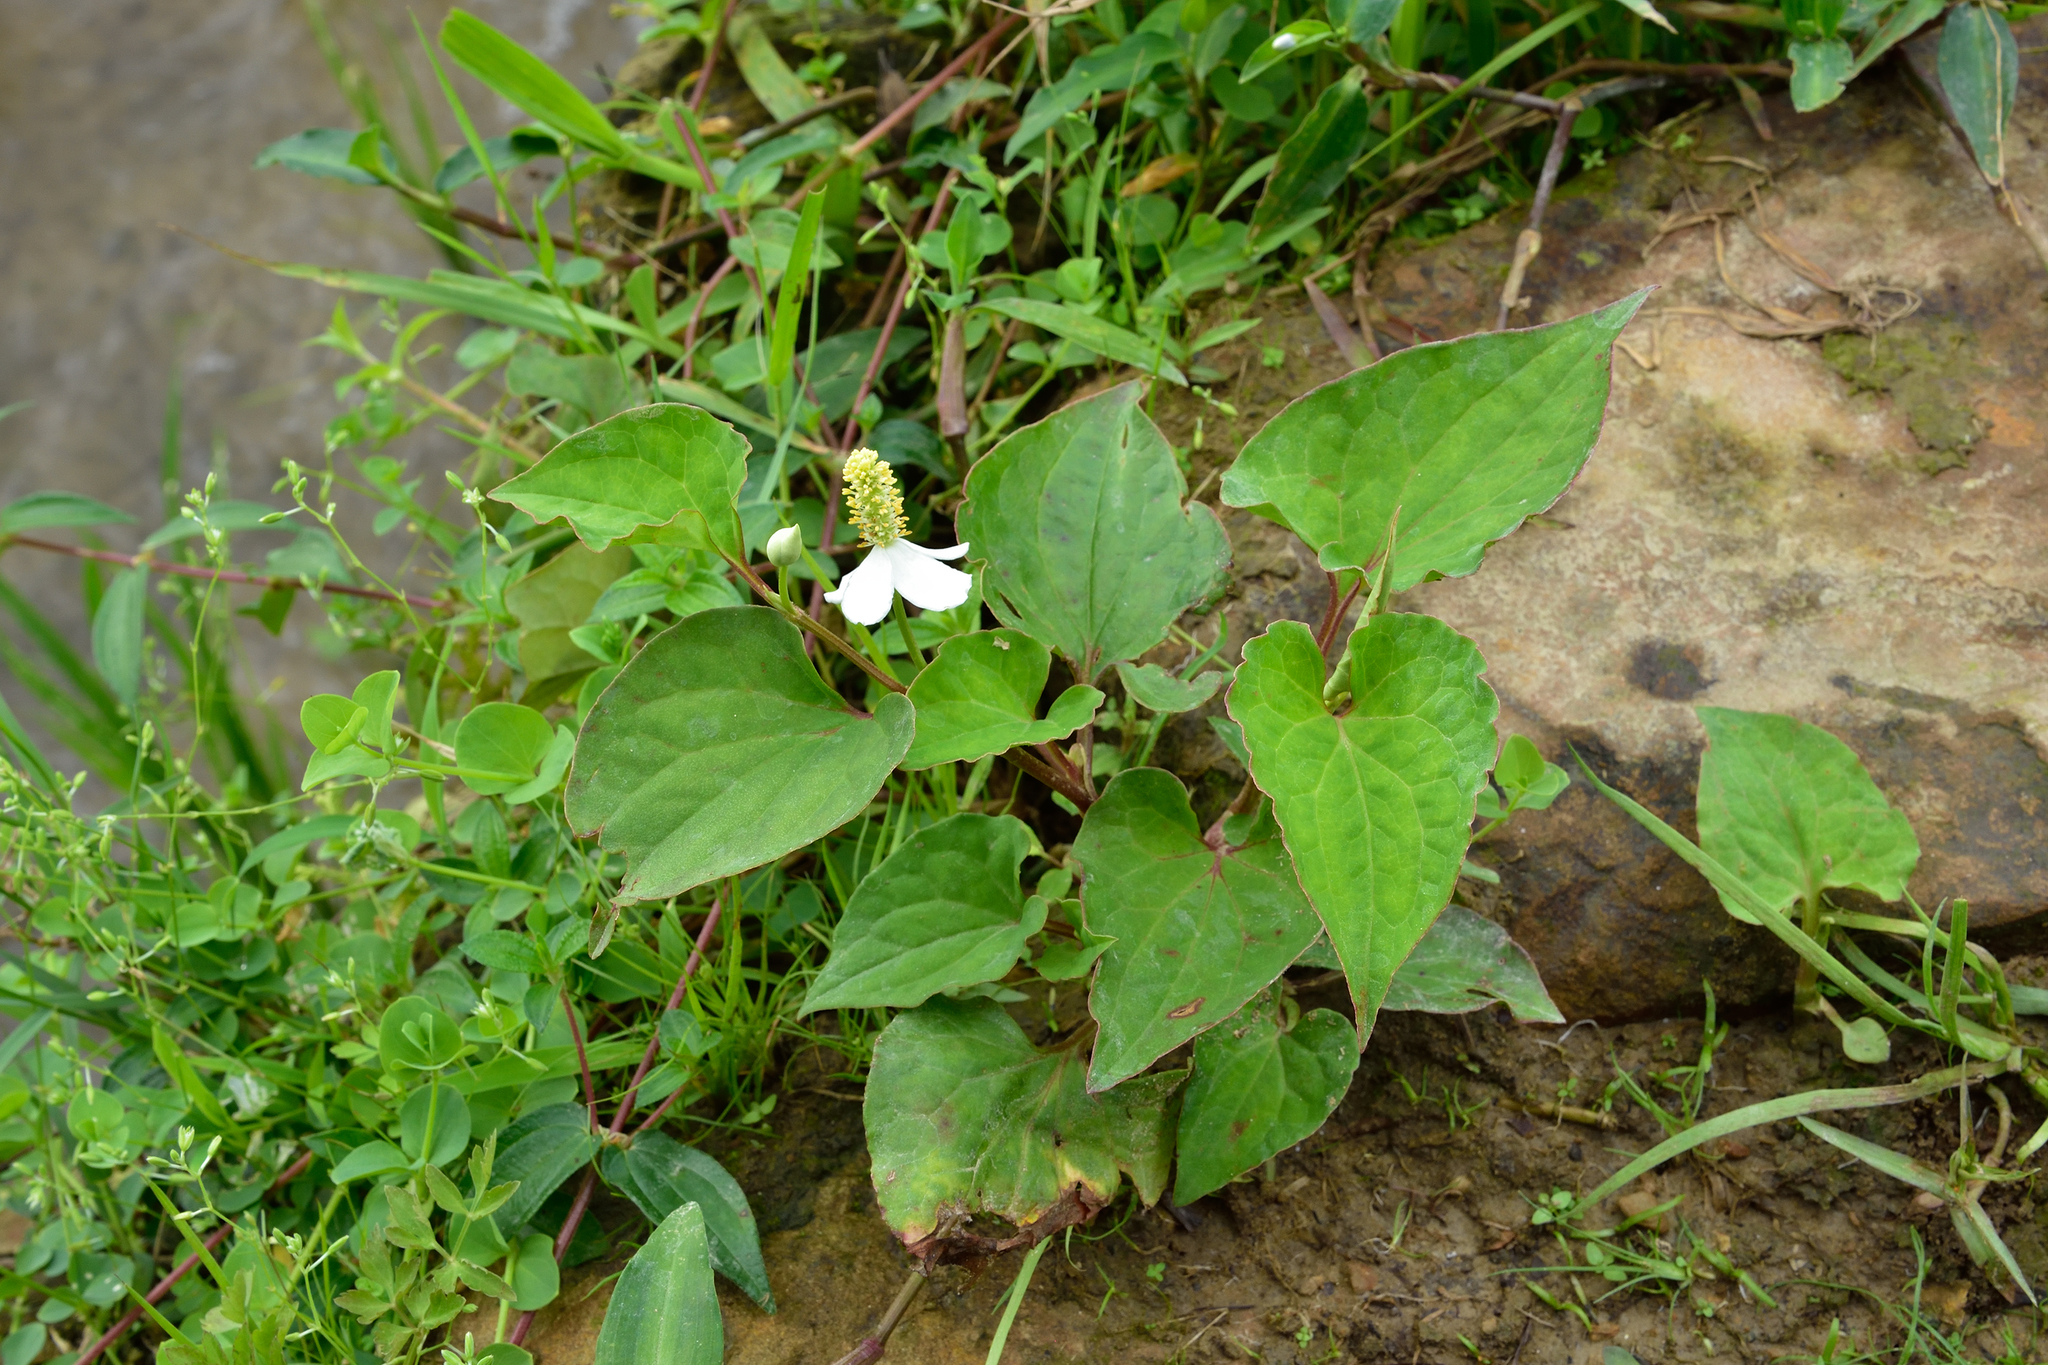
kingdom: Plantae
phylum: Tracheophyta
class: Magnoliopsida
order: Piperales
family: Saururaceae
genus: Houttuynia
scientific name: Houttuynia cordata
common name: Chameleon
